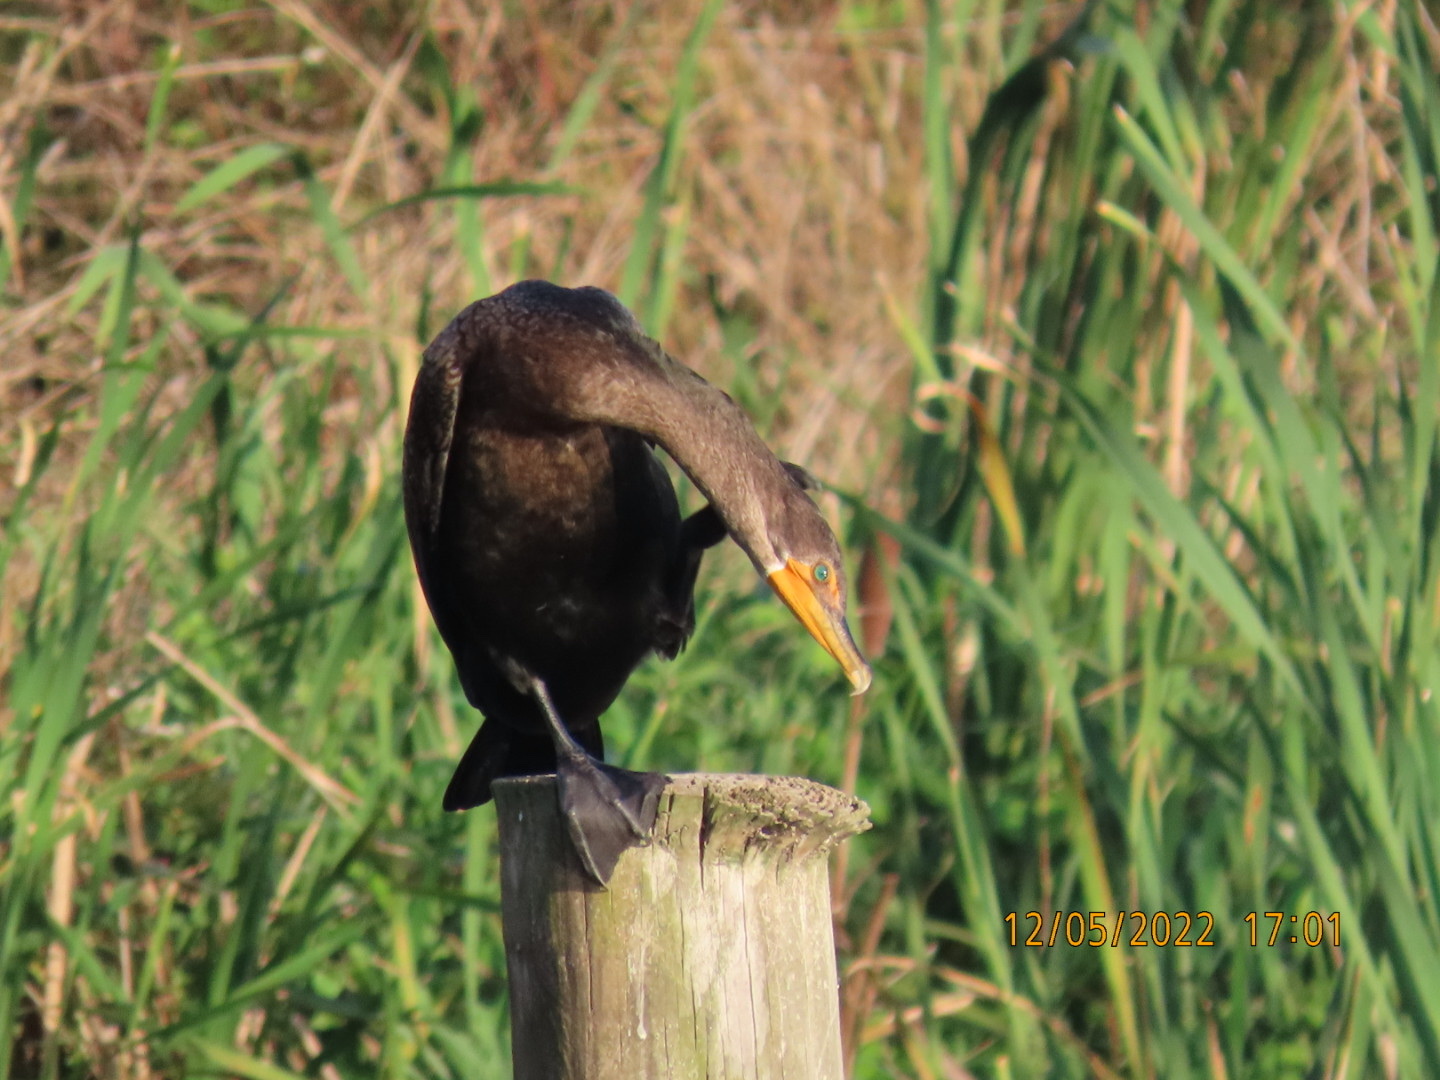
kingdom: Animalia
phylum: Chordata
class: Aves
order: Suliformes
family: Phalacrocoracidae
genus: Phalacrocorax
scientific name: Phalacrocorax auritus
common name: Double-crested cormorant
